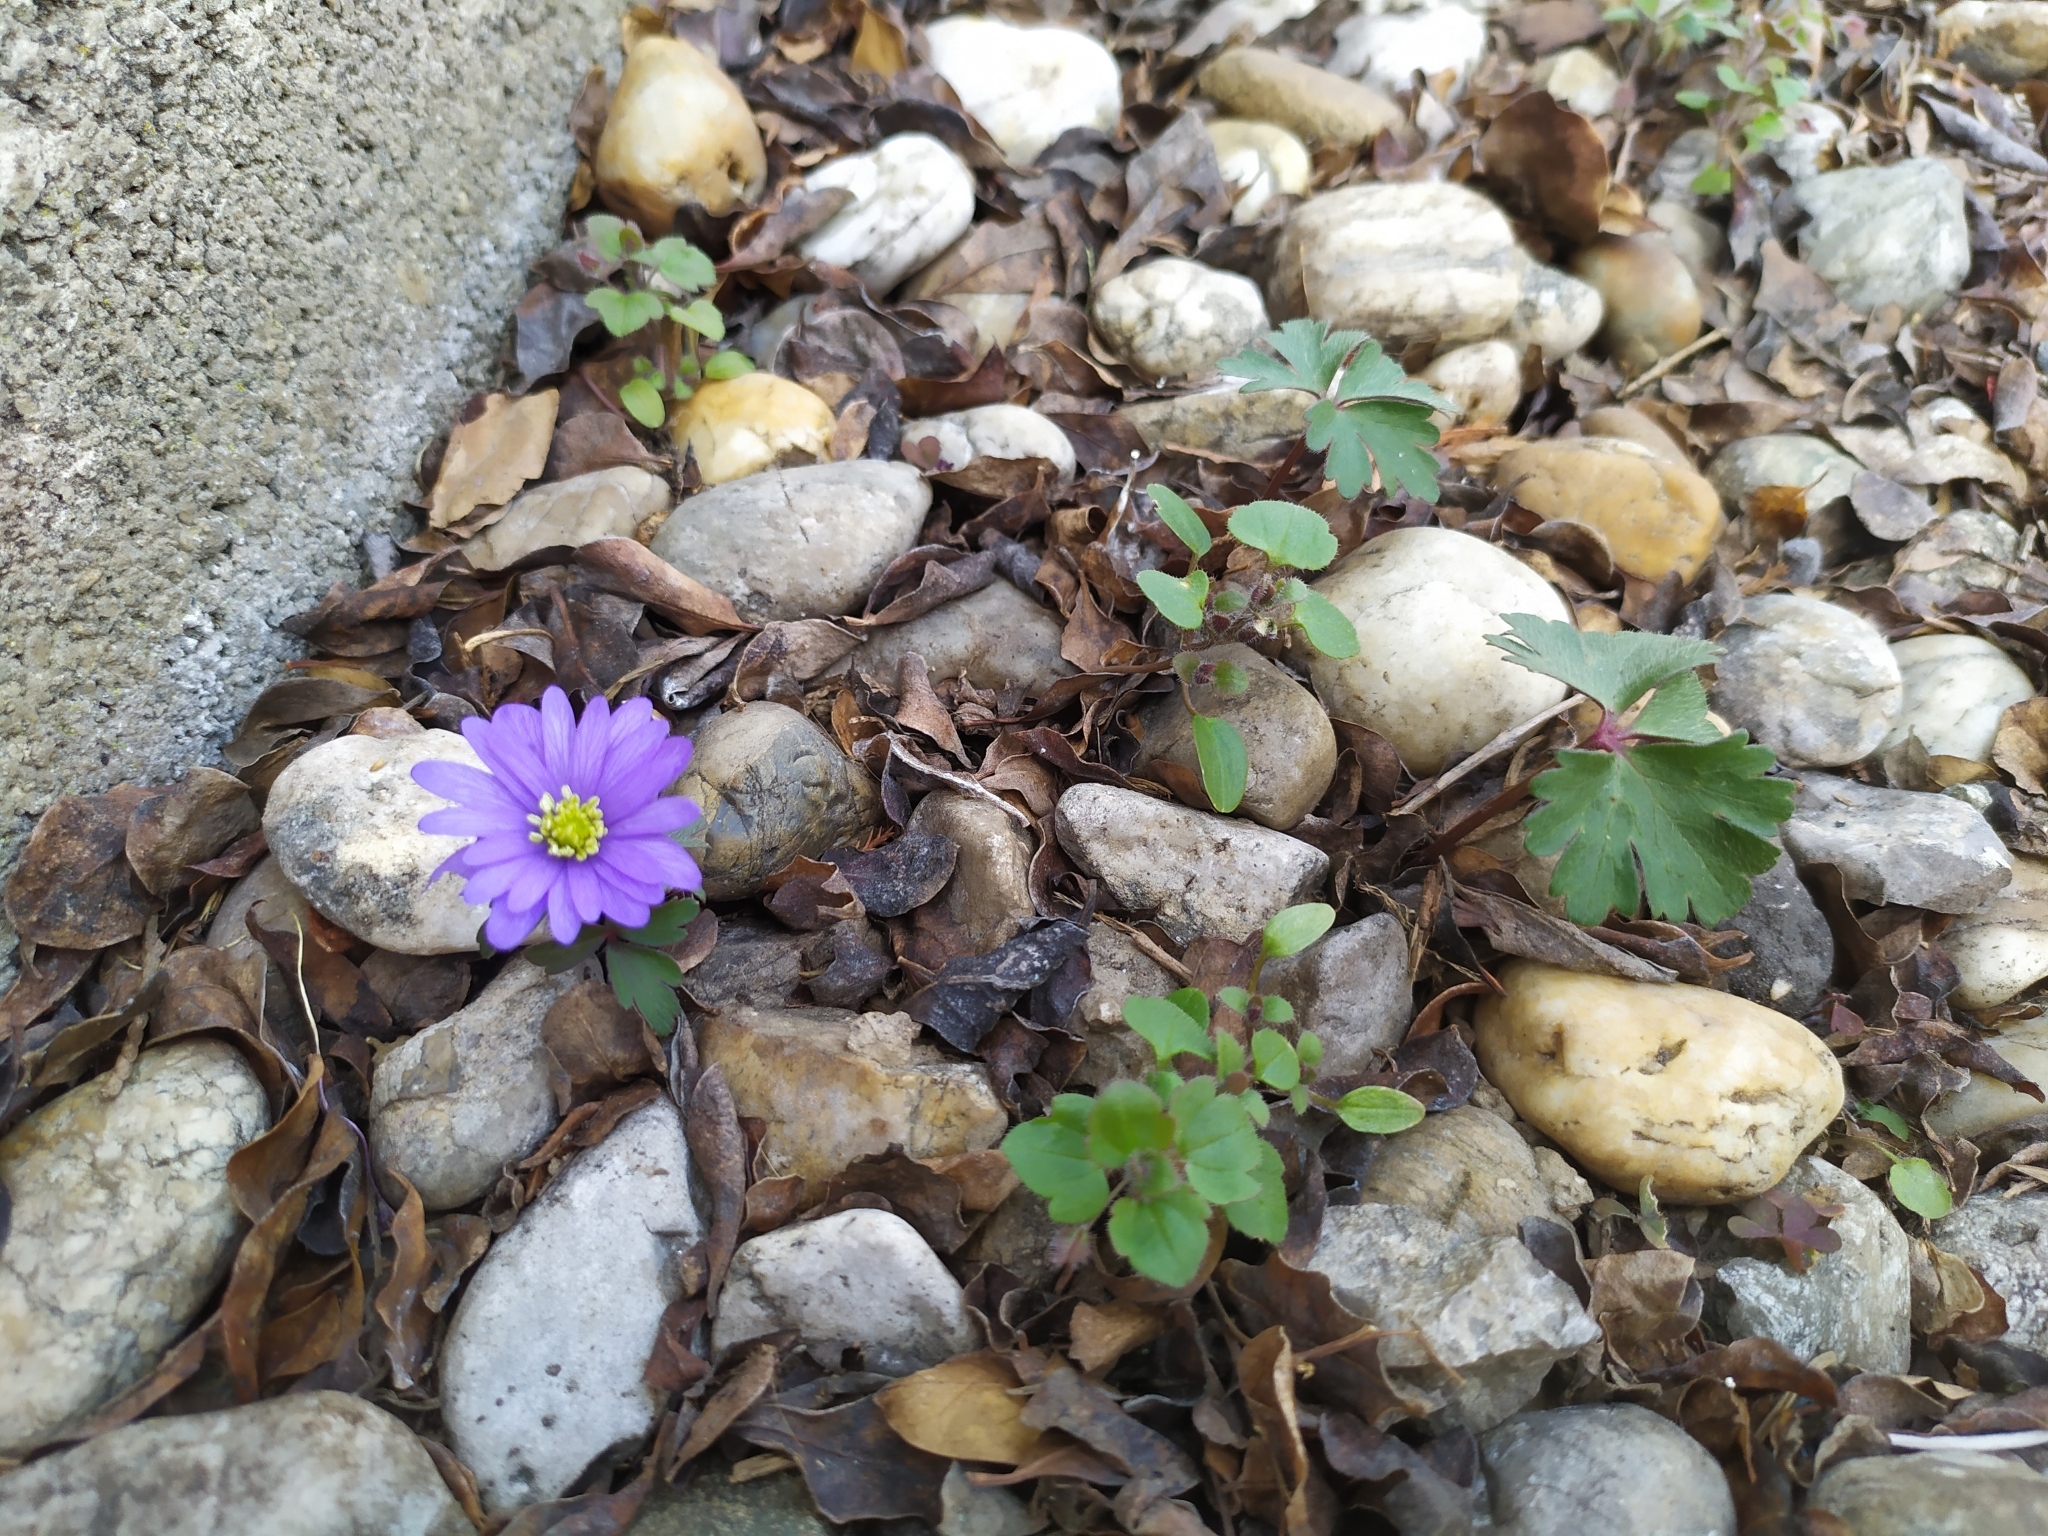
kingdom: Plantae
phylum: Tracheophyta
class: Magnoliopsida
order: Ranunculales
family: Ranunculaceae
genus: Anemone
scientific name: Anemone blanda
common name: Balkan anemone
